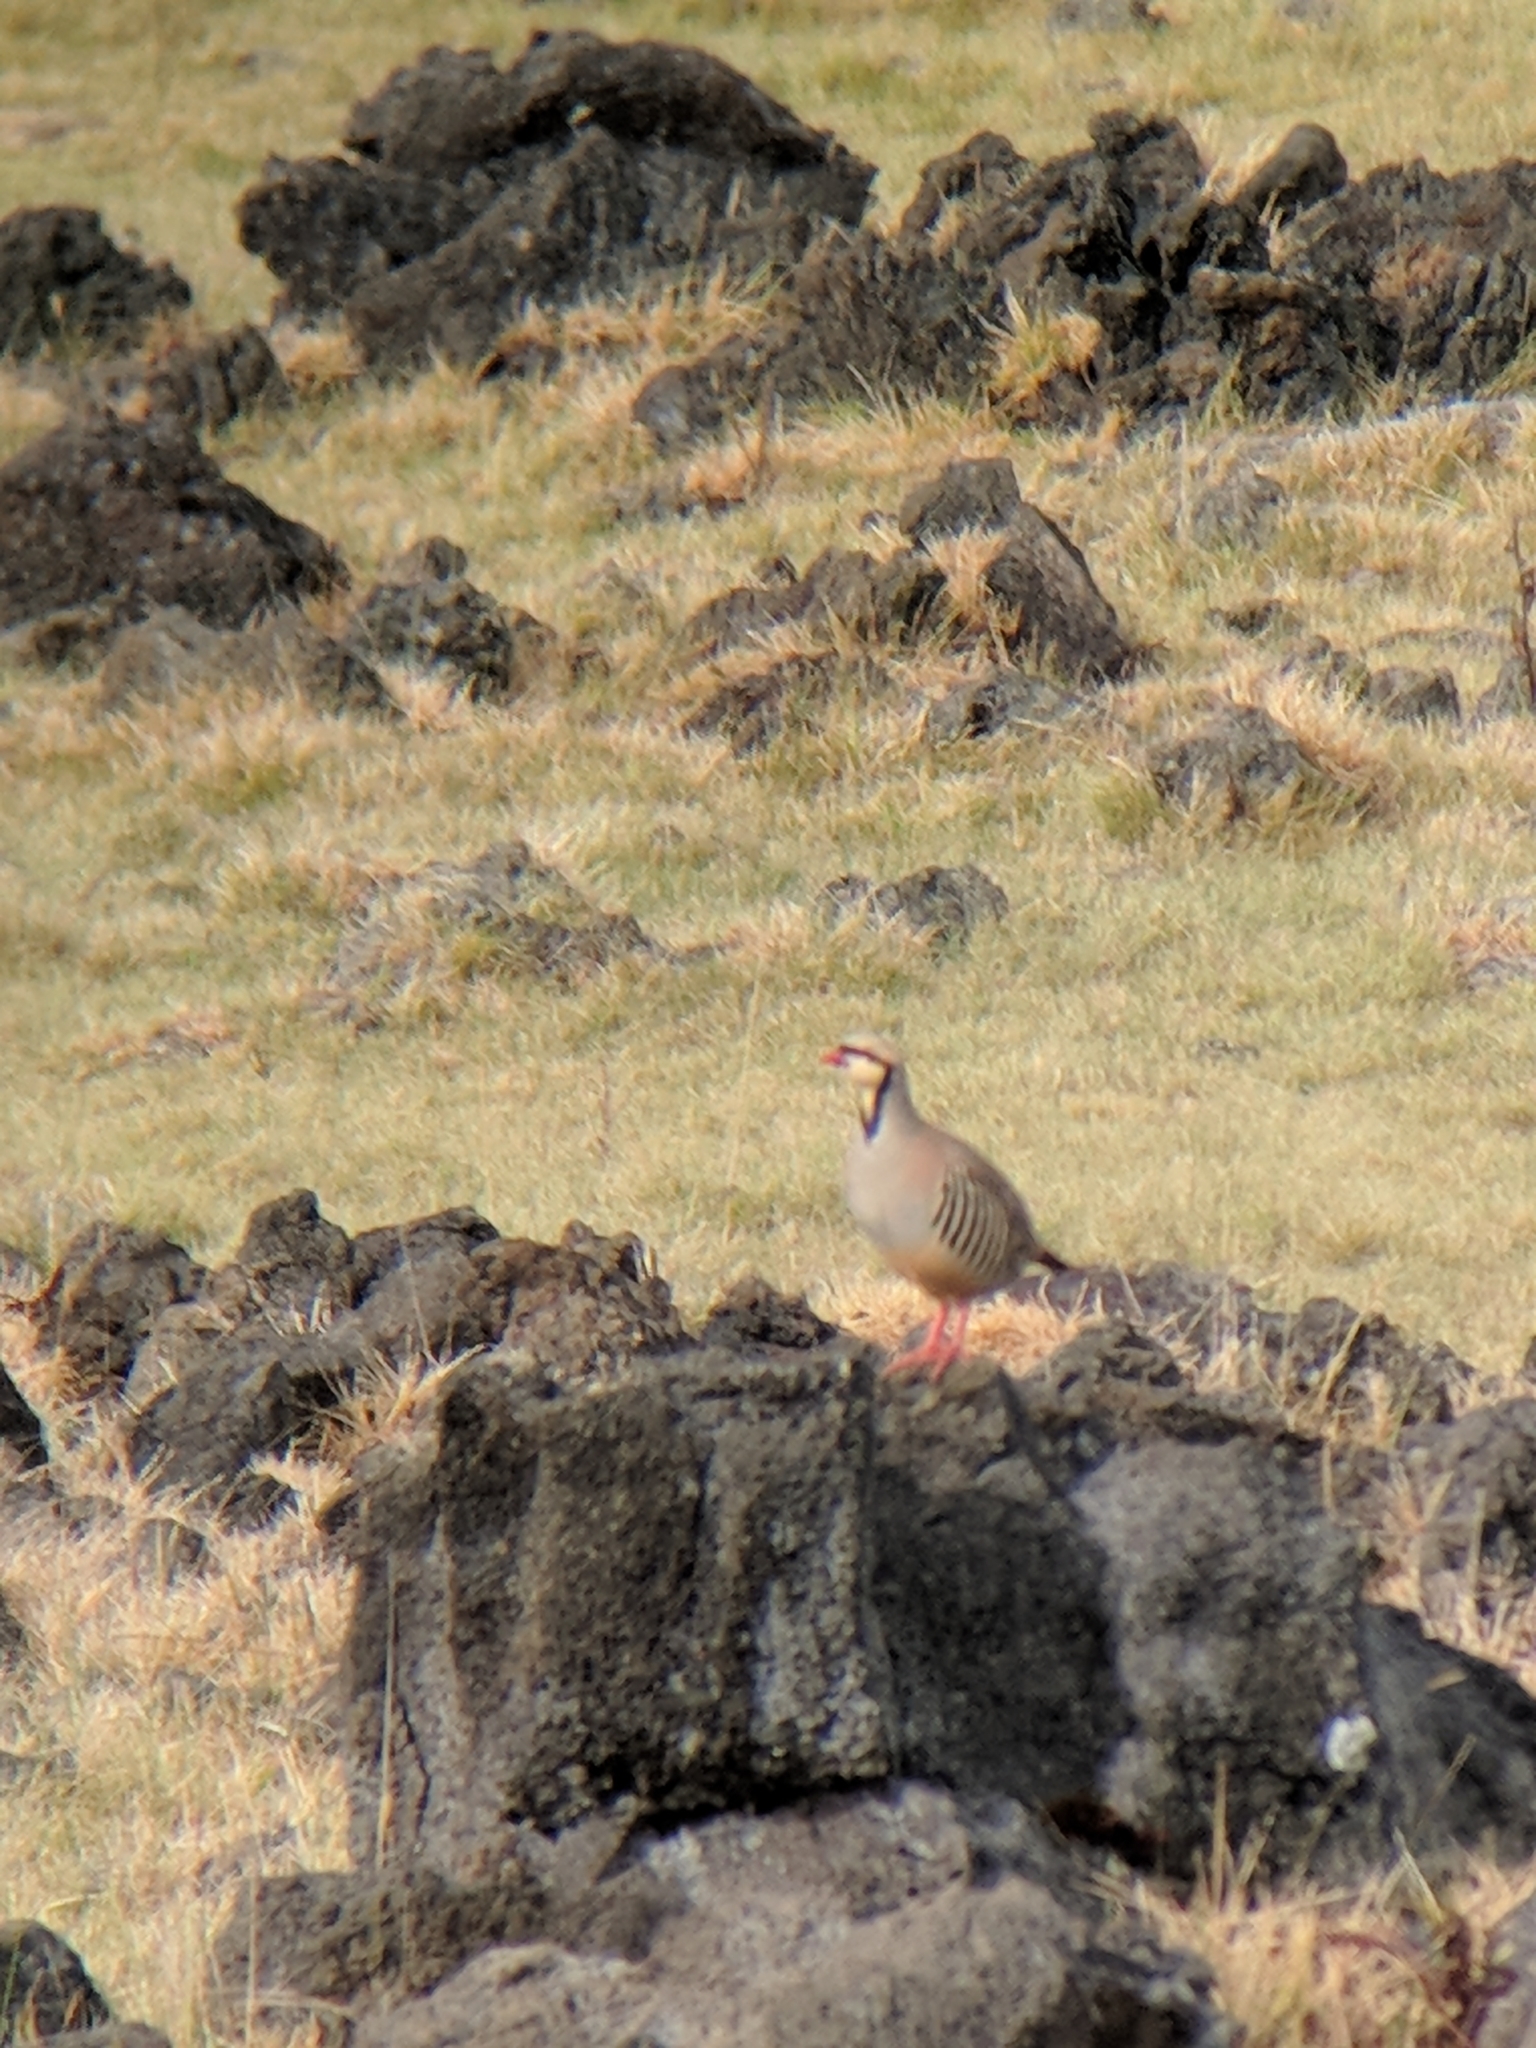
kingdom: Animalia
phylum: Chordata
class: Aves
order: Galliformes
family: Phasianidae
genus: Alectoris
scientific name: Alectoris chukar
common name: Chukar
